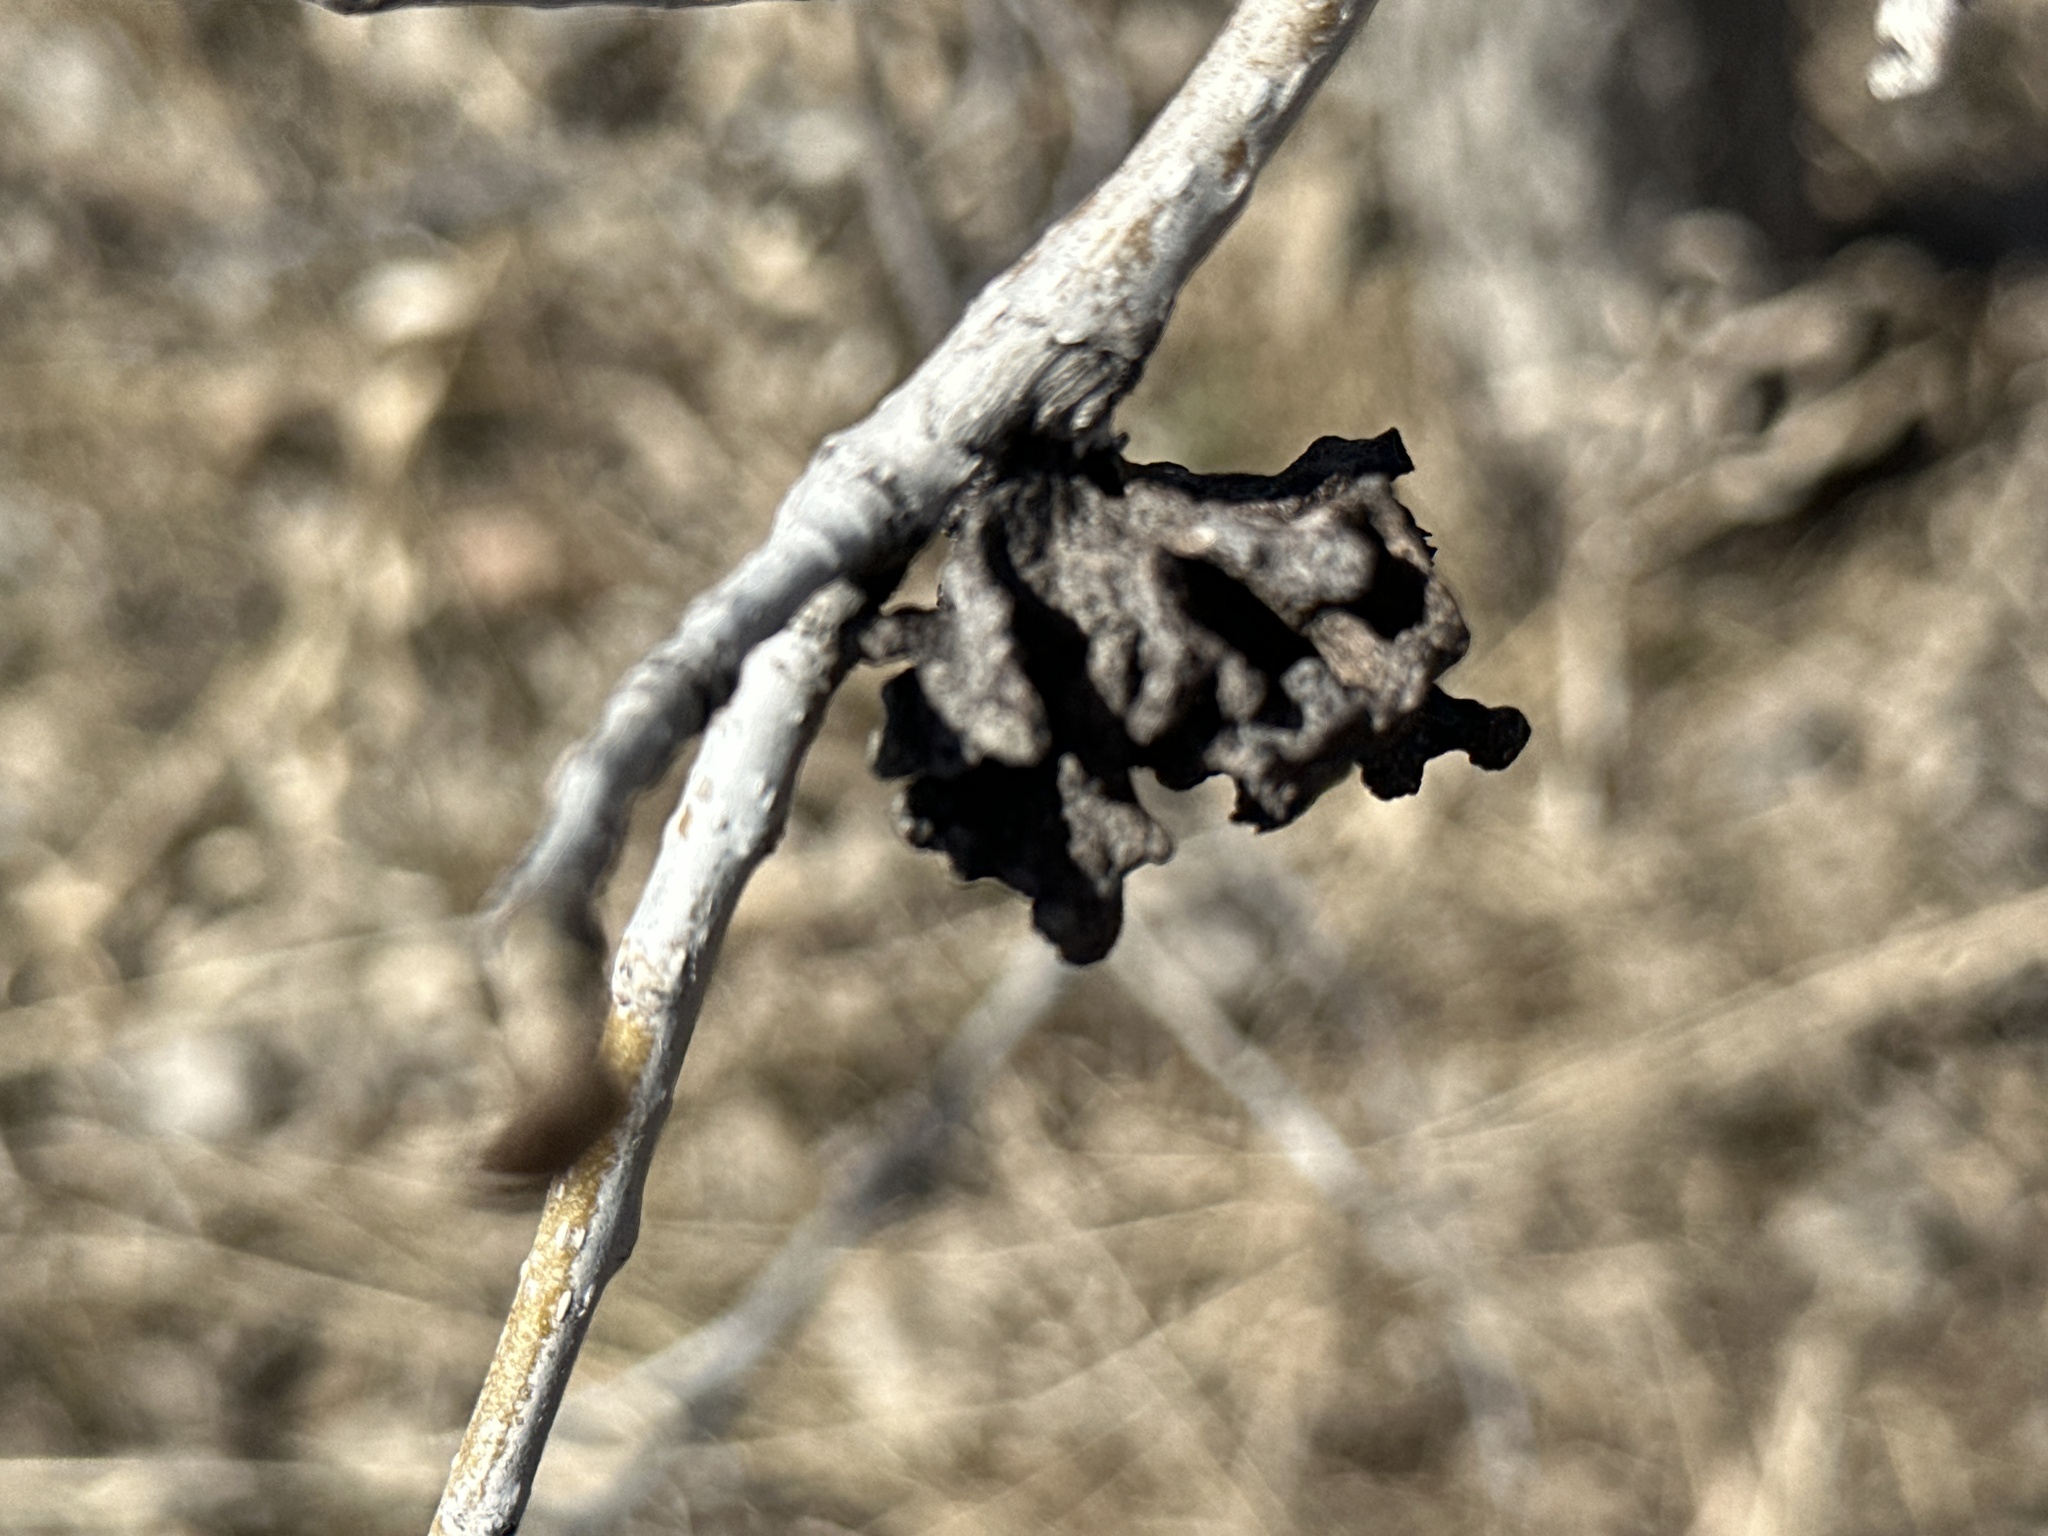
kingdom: Animalia
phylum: Arthropoda
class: Insecta
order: Hemiptera
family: Aphididae
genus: Mordwilkoja
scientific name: Mordwilkoja vagabunda
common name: Poplar vagabond aphid
